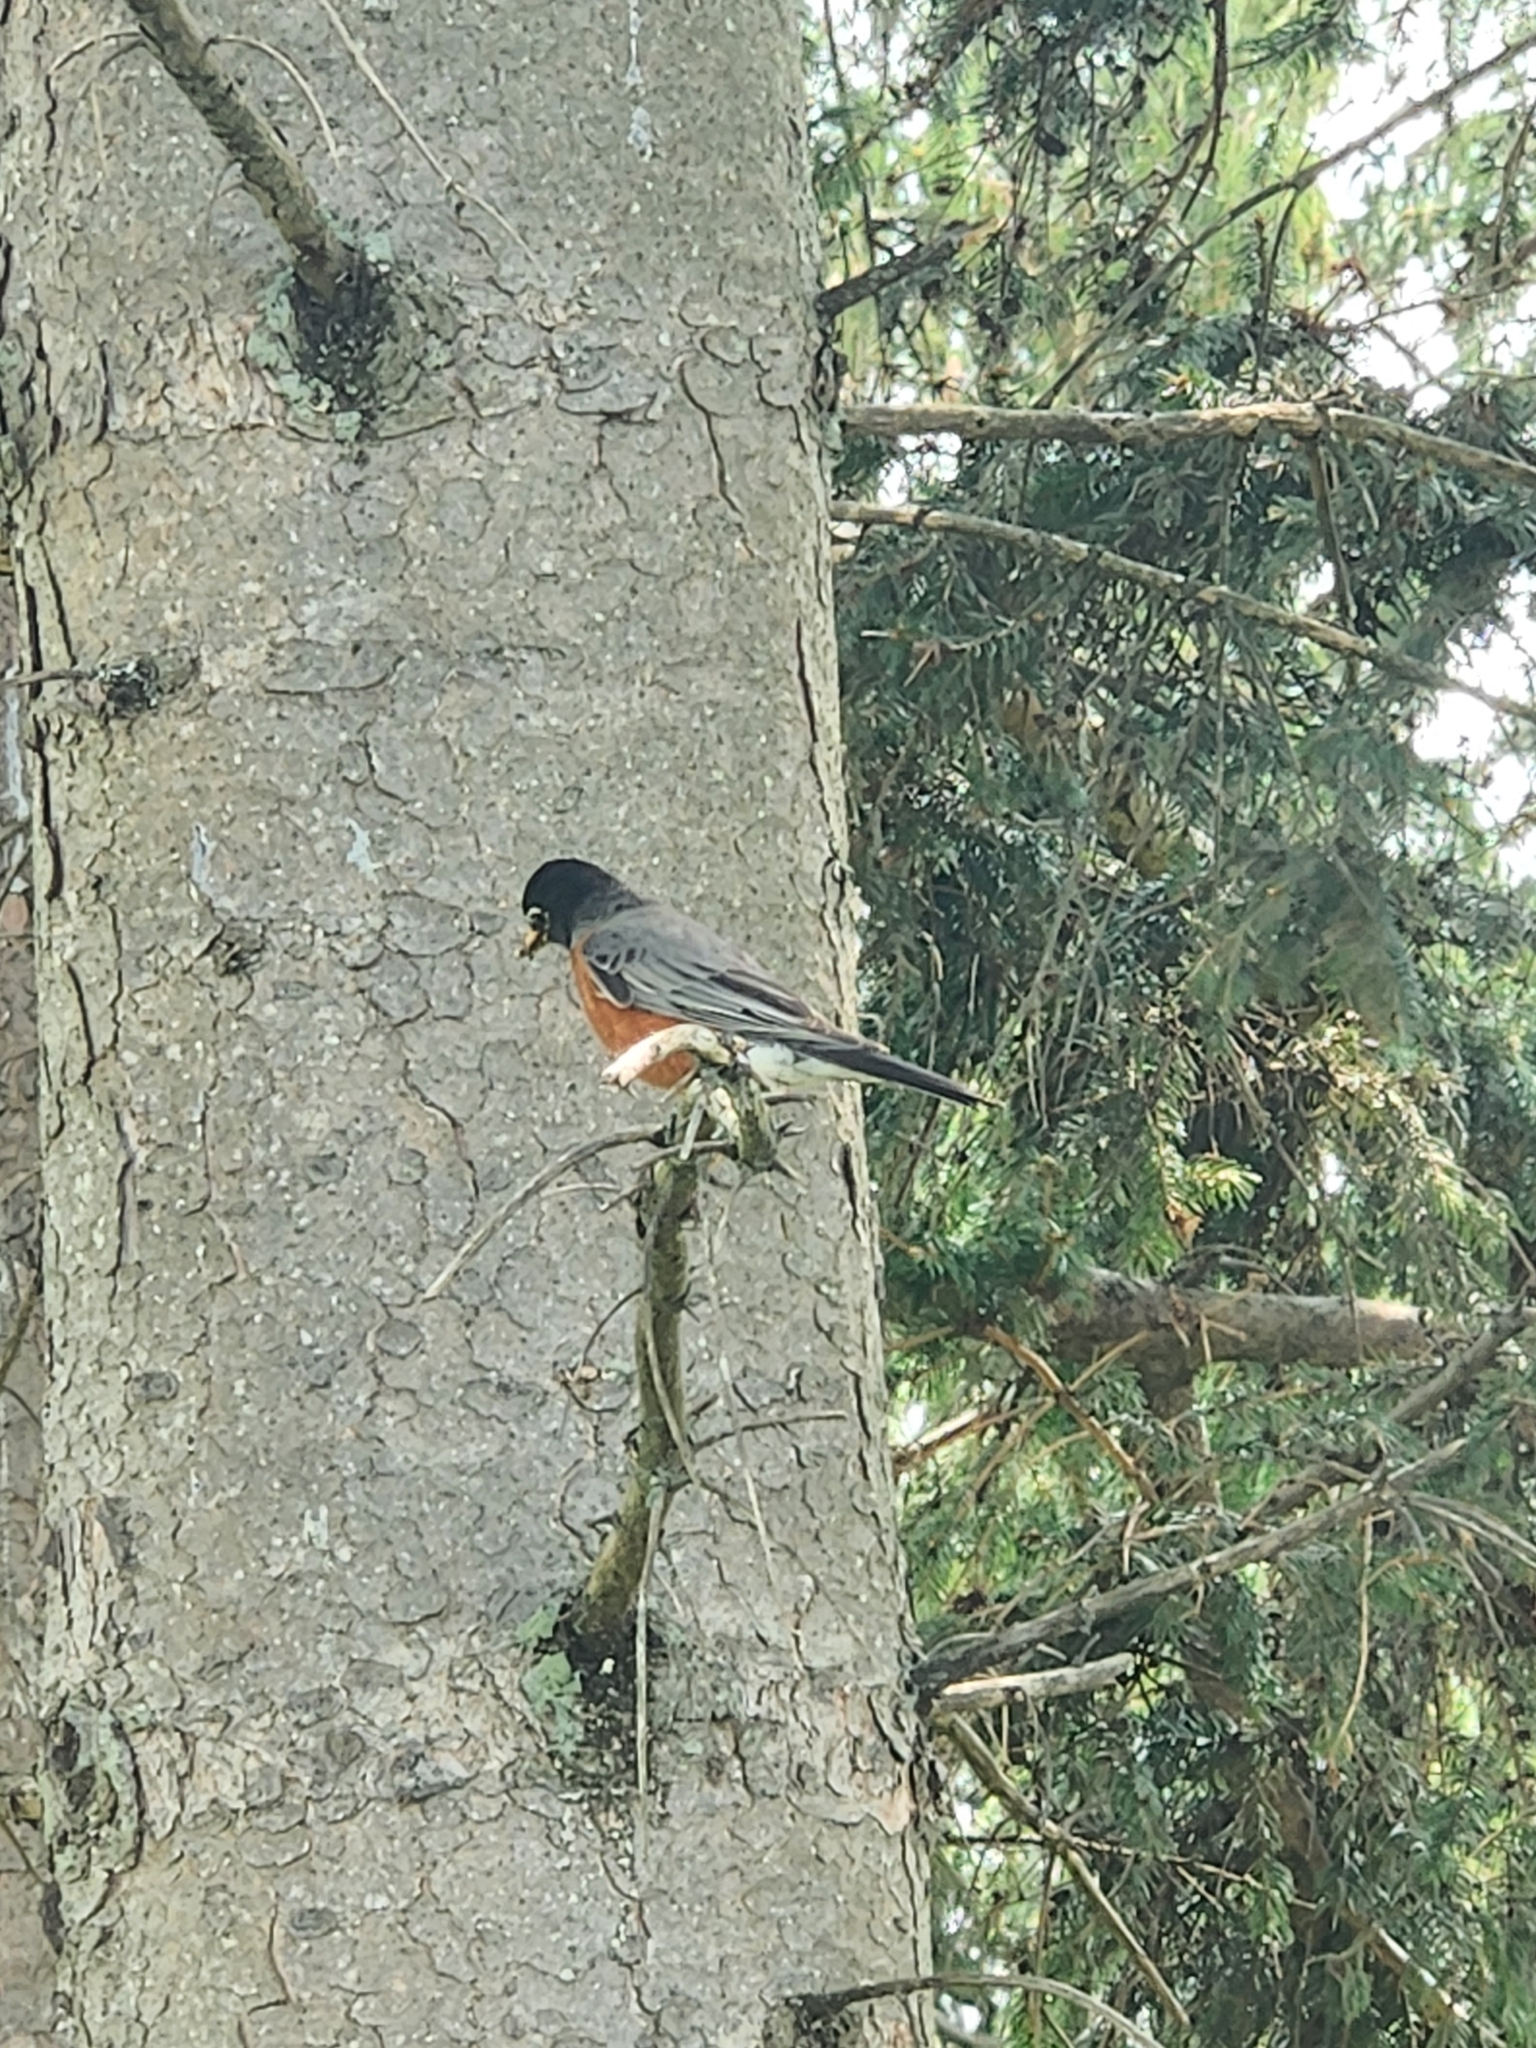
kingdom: Animalia
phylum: Chordata
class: Aves
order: Passeriformes
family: Turdidae
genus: Turdus
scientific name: Turdus migratorius
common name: American robin
